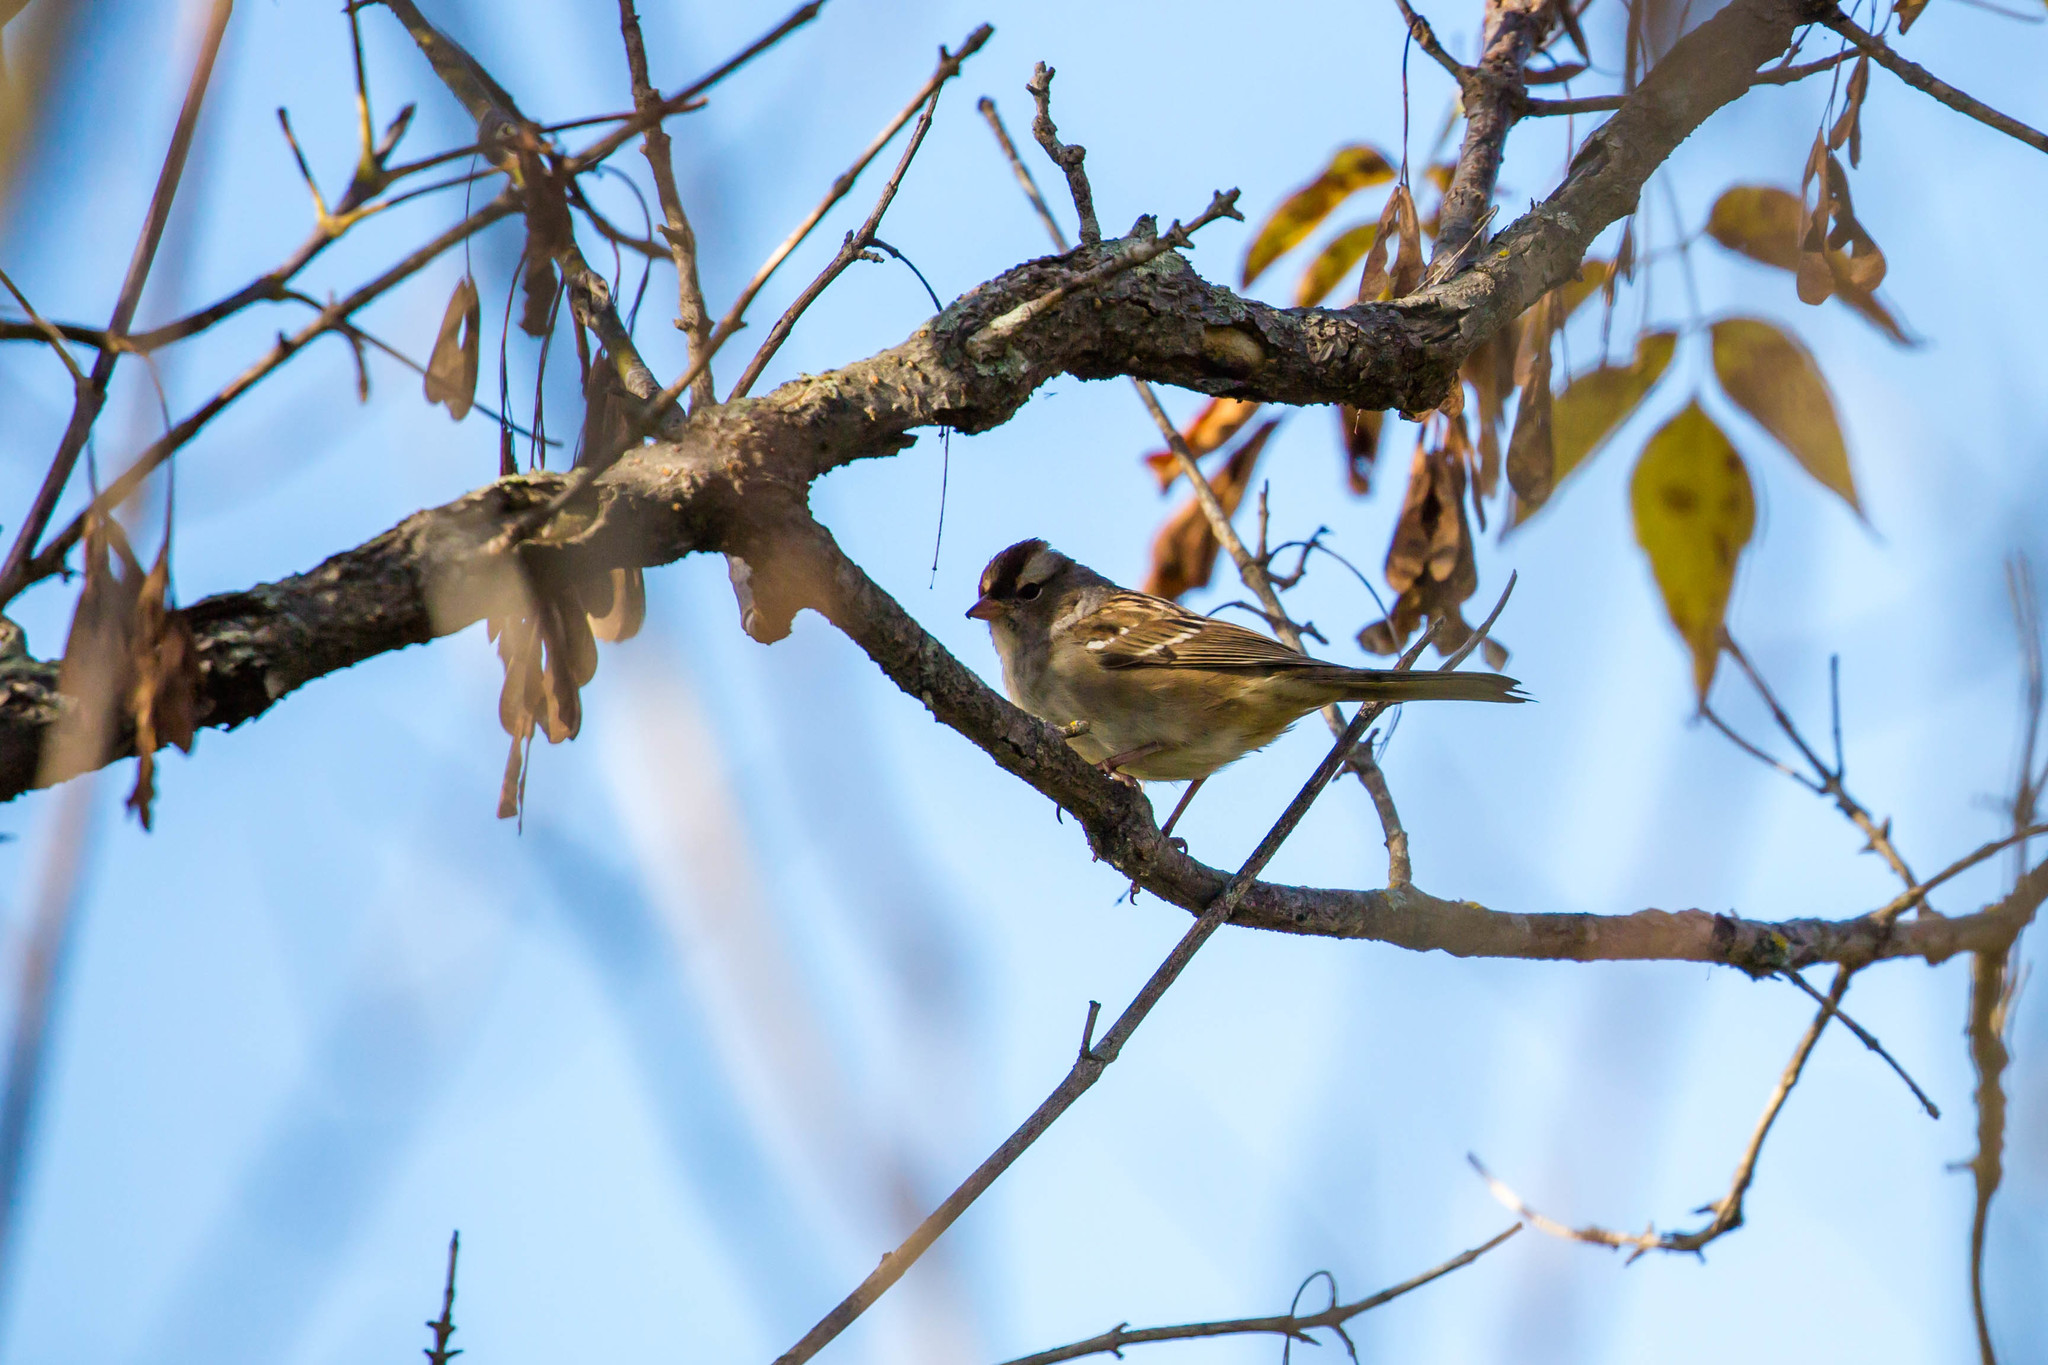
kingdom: Animalia
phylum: Chordata
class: Aves
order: Passeriformes
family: Passerellidae
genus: Zonotrichia
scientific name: Zonotrichia leucophrys
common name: White-crowned sparrow
